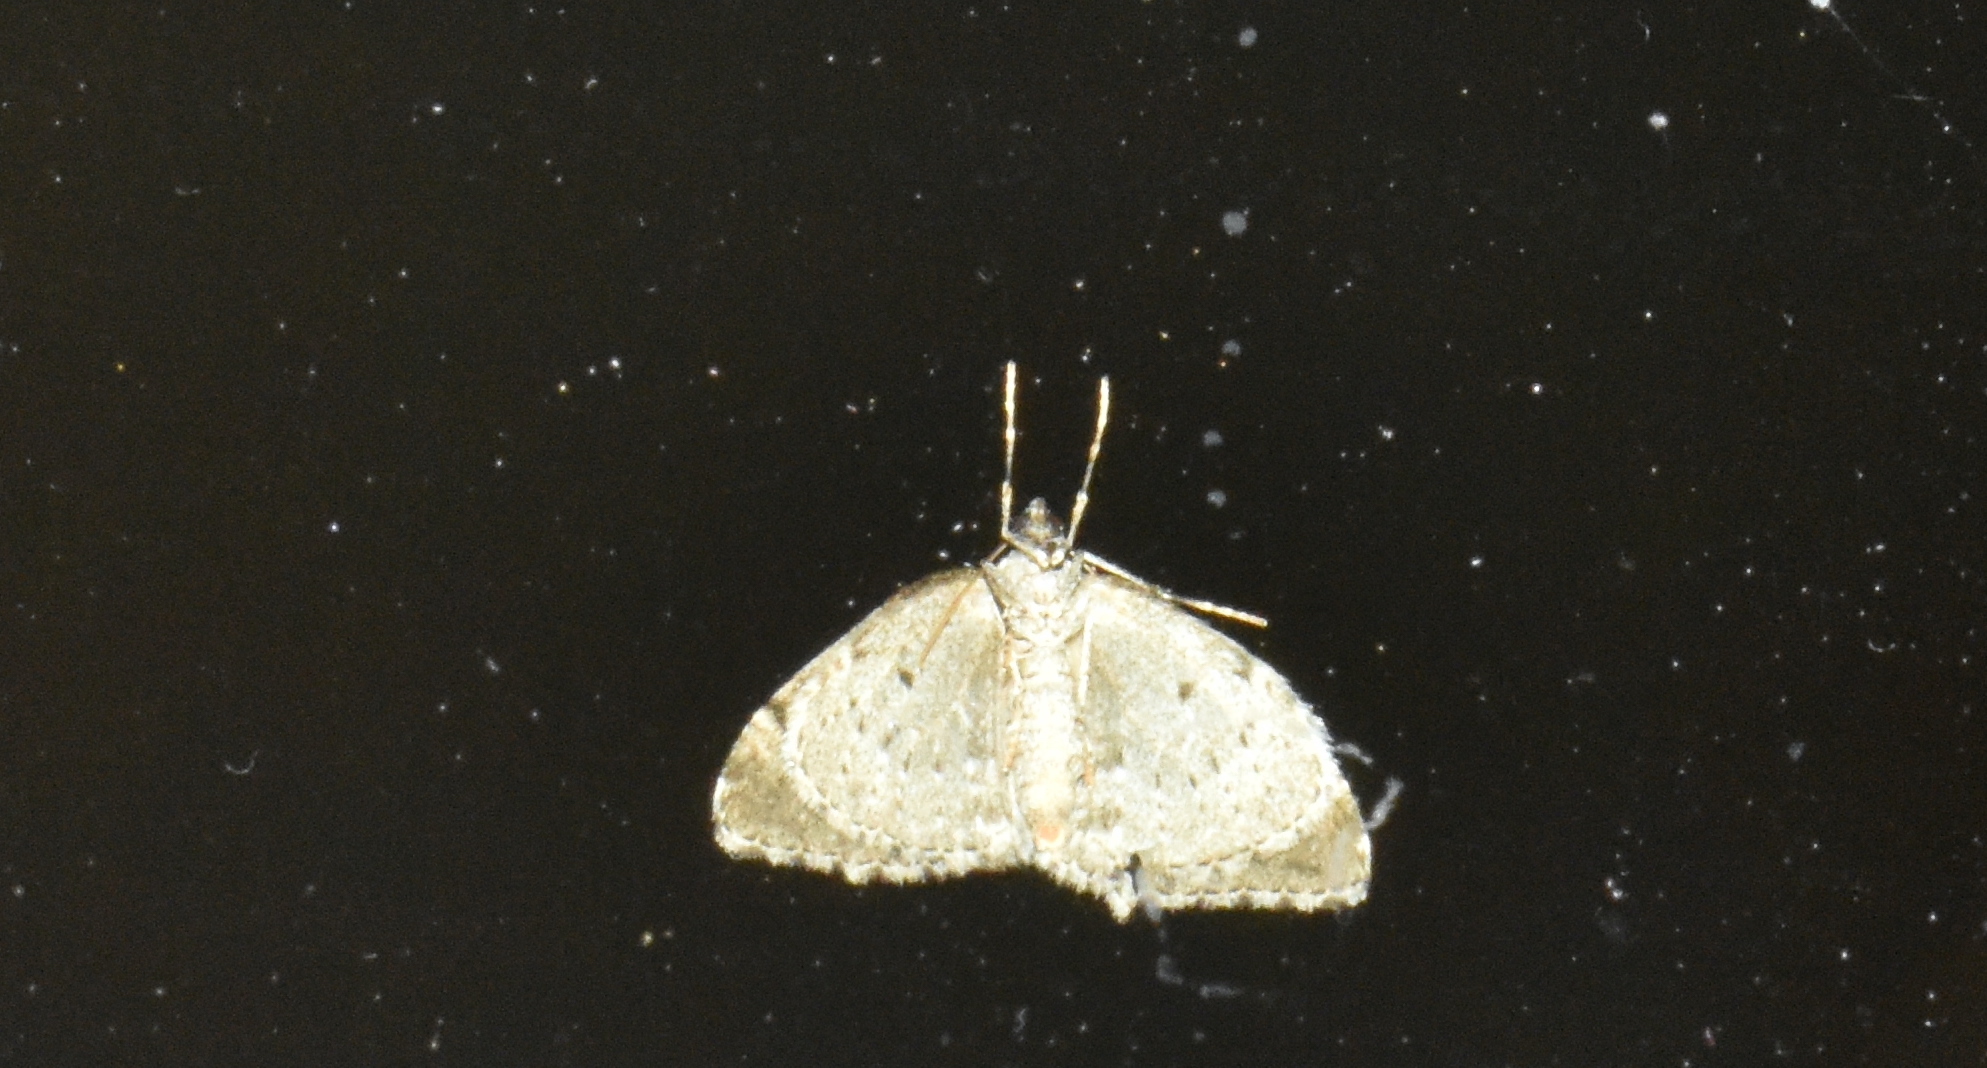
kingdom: Animalia
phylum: Arthropoda
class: Insecta
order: Lepidoptera
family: Geometridae
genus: Perizoma
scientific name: Perizoma curvilinea
